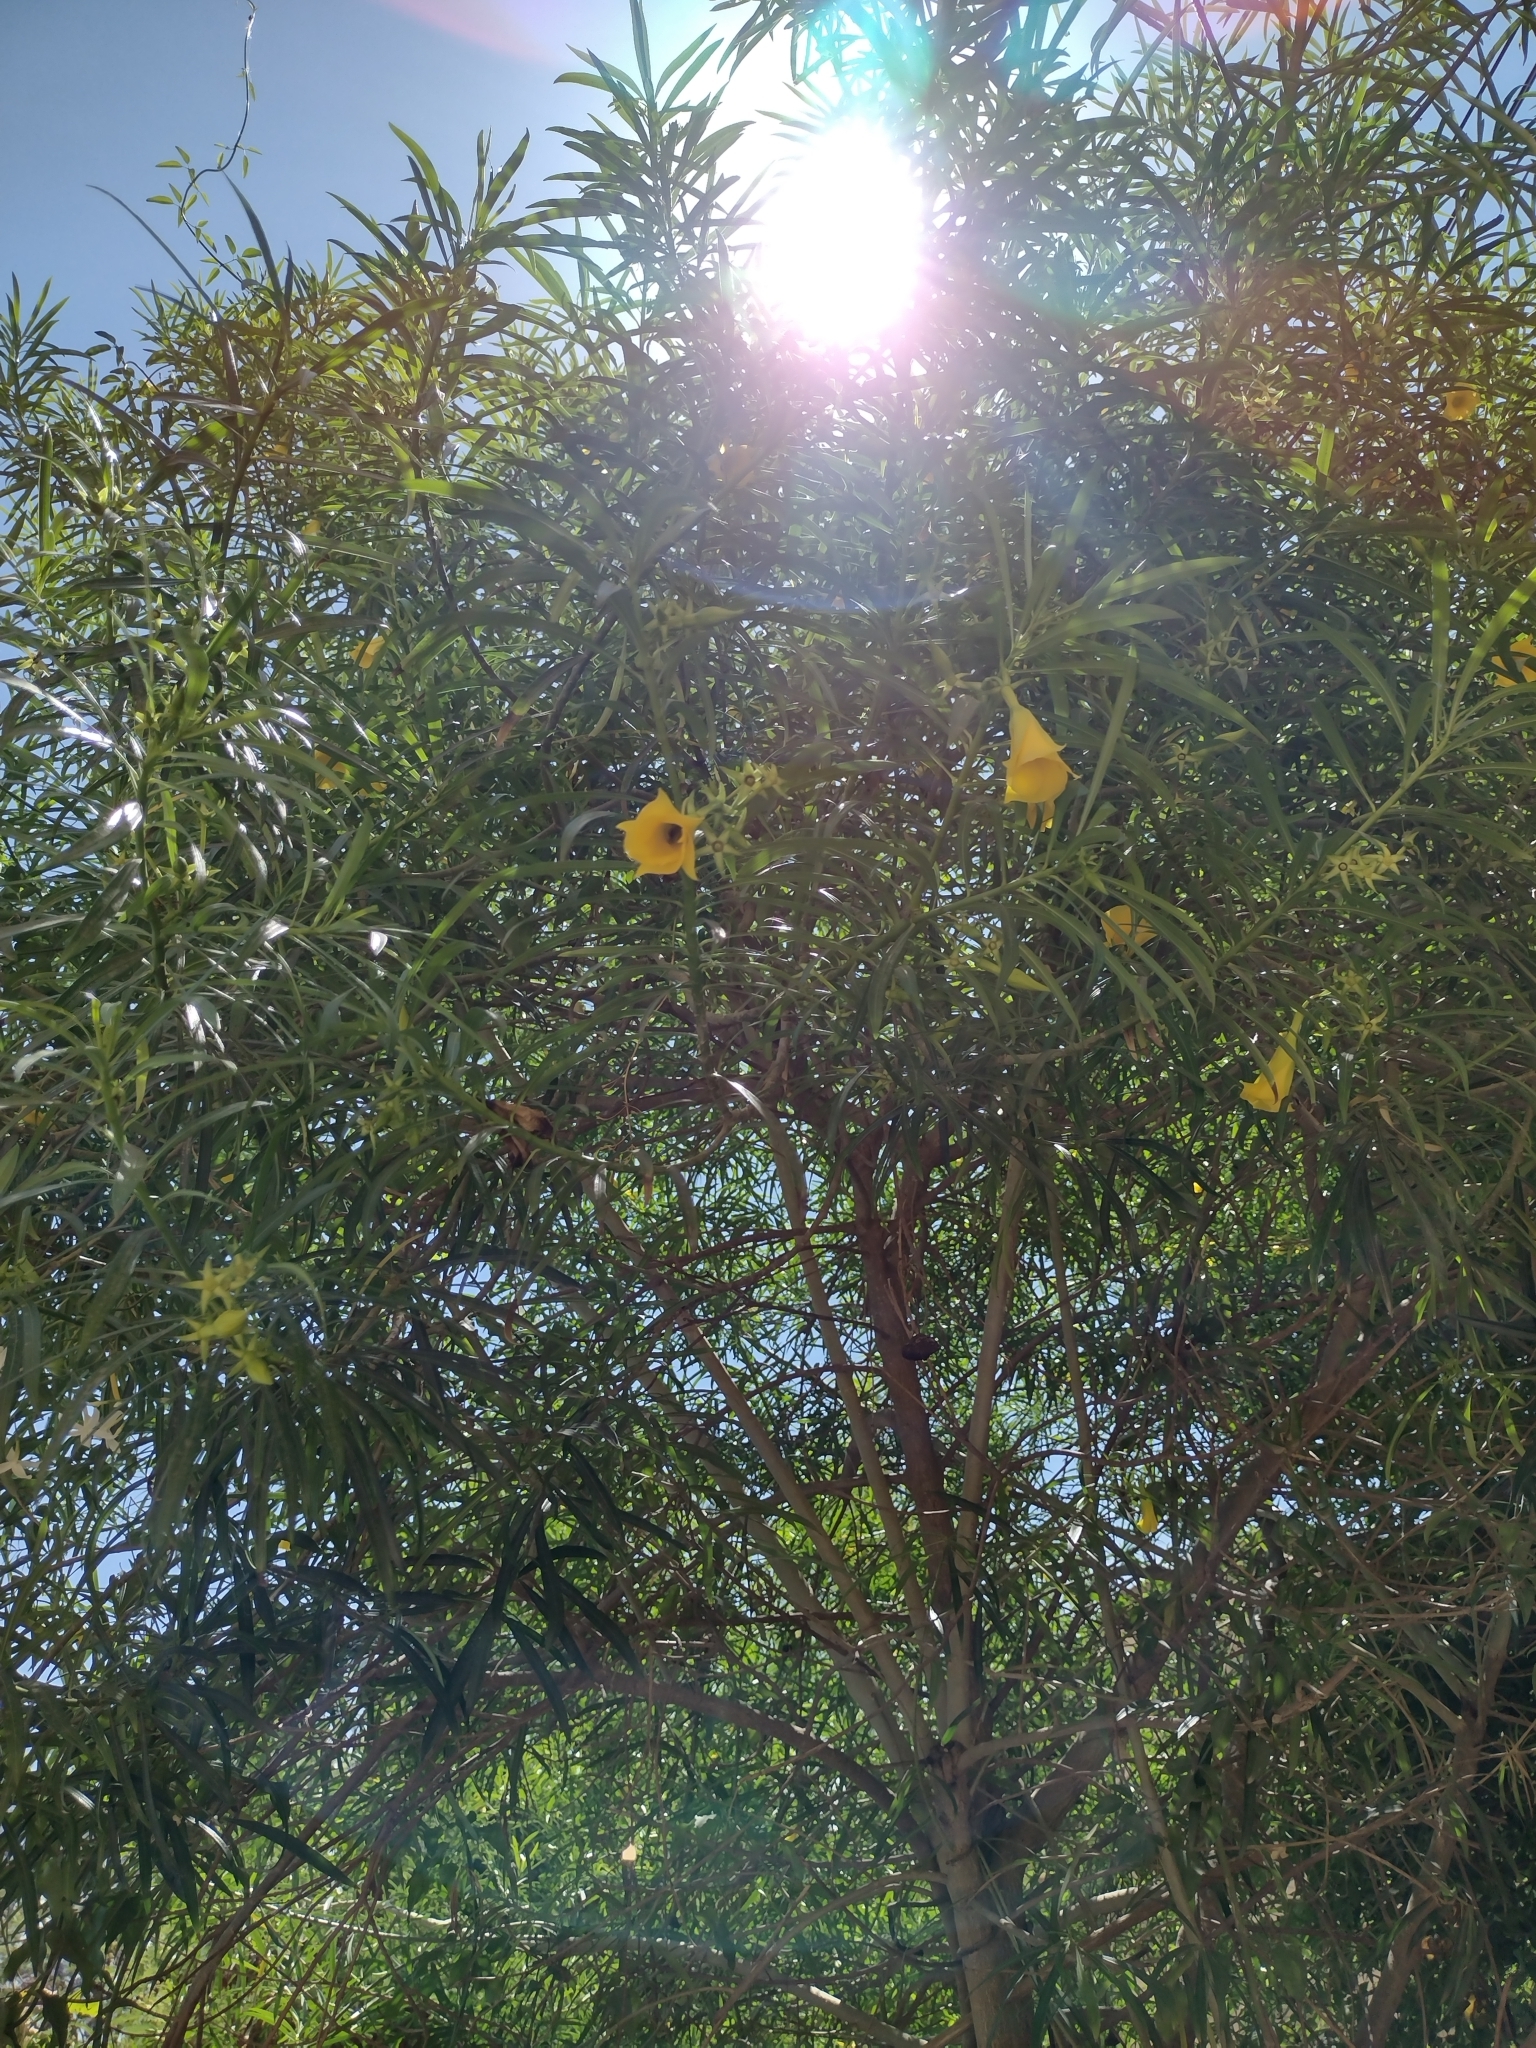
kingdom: Plantae
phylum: Tracheophyta
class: Magnoliopsida
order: Gentianales
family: Apocynaceae
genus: Cascabela
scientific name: Cascabela thevetia
